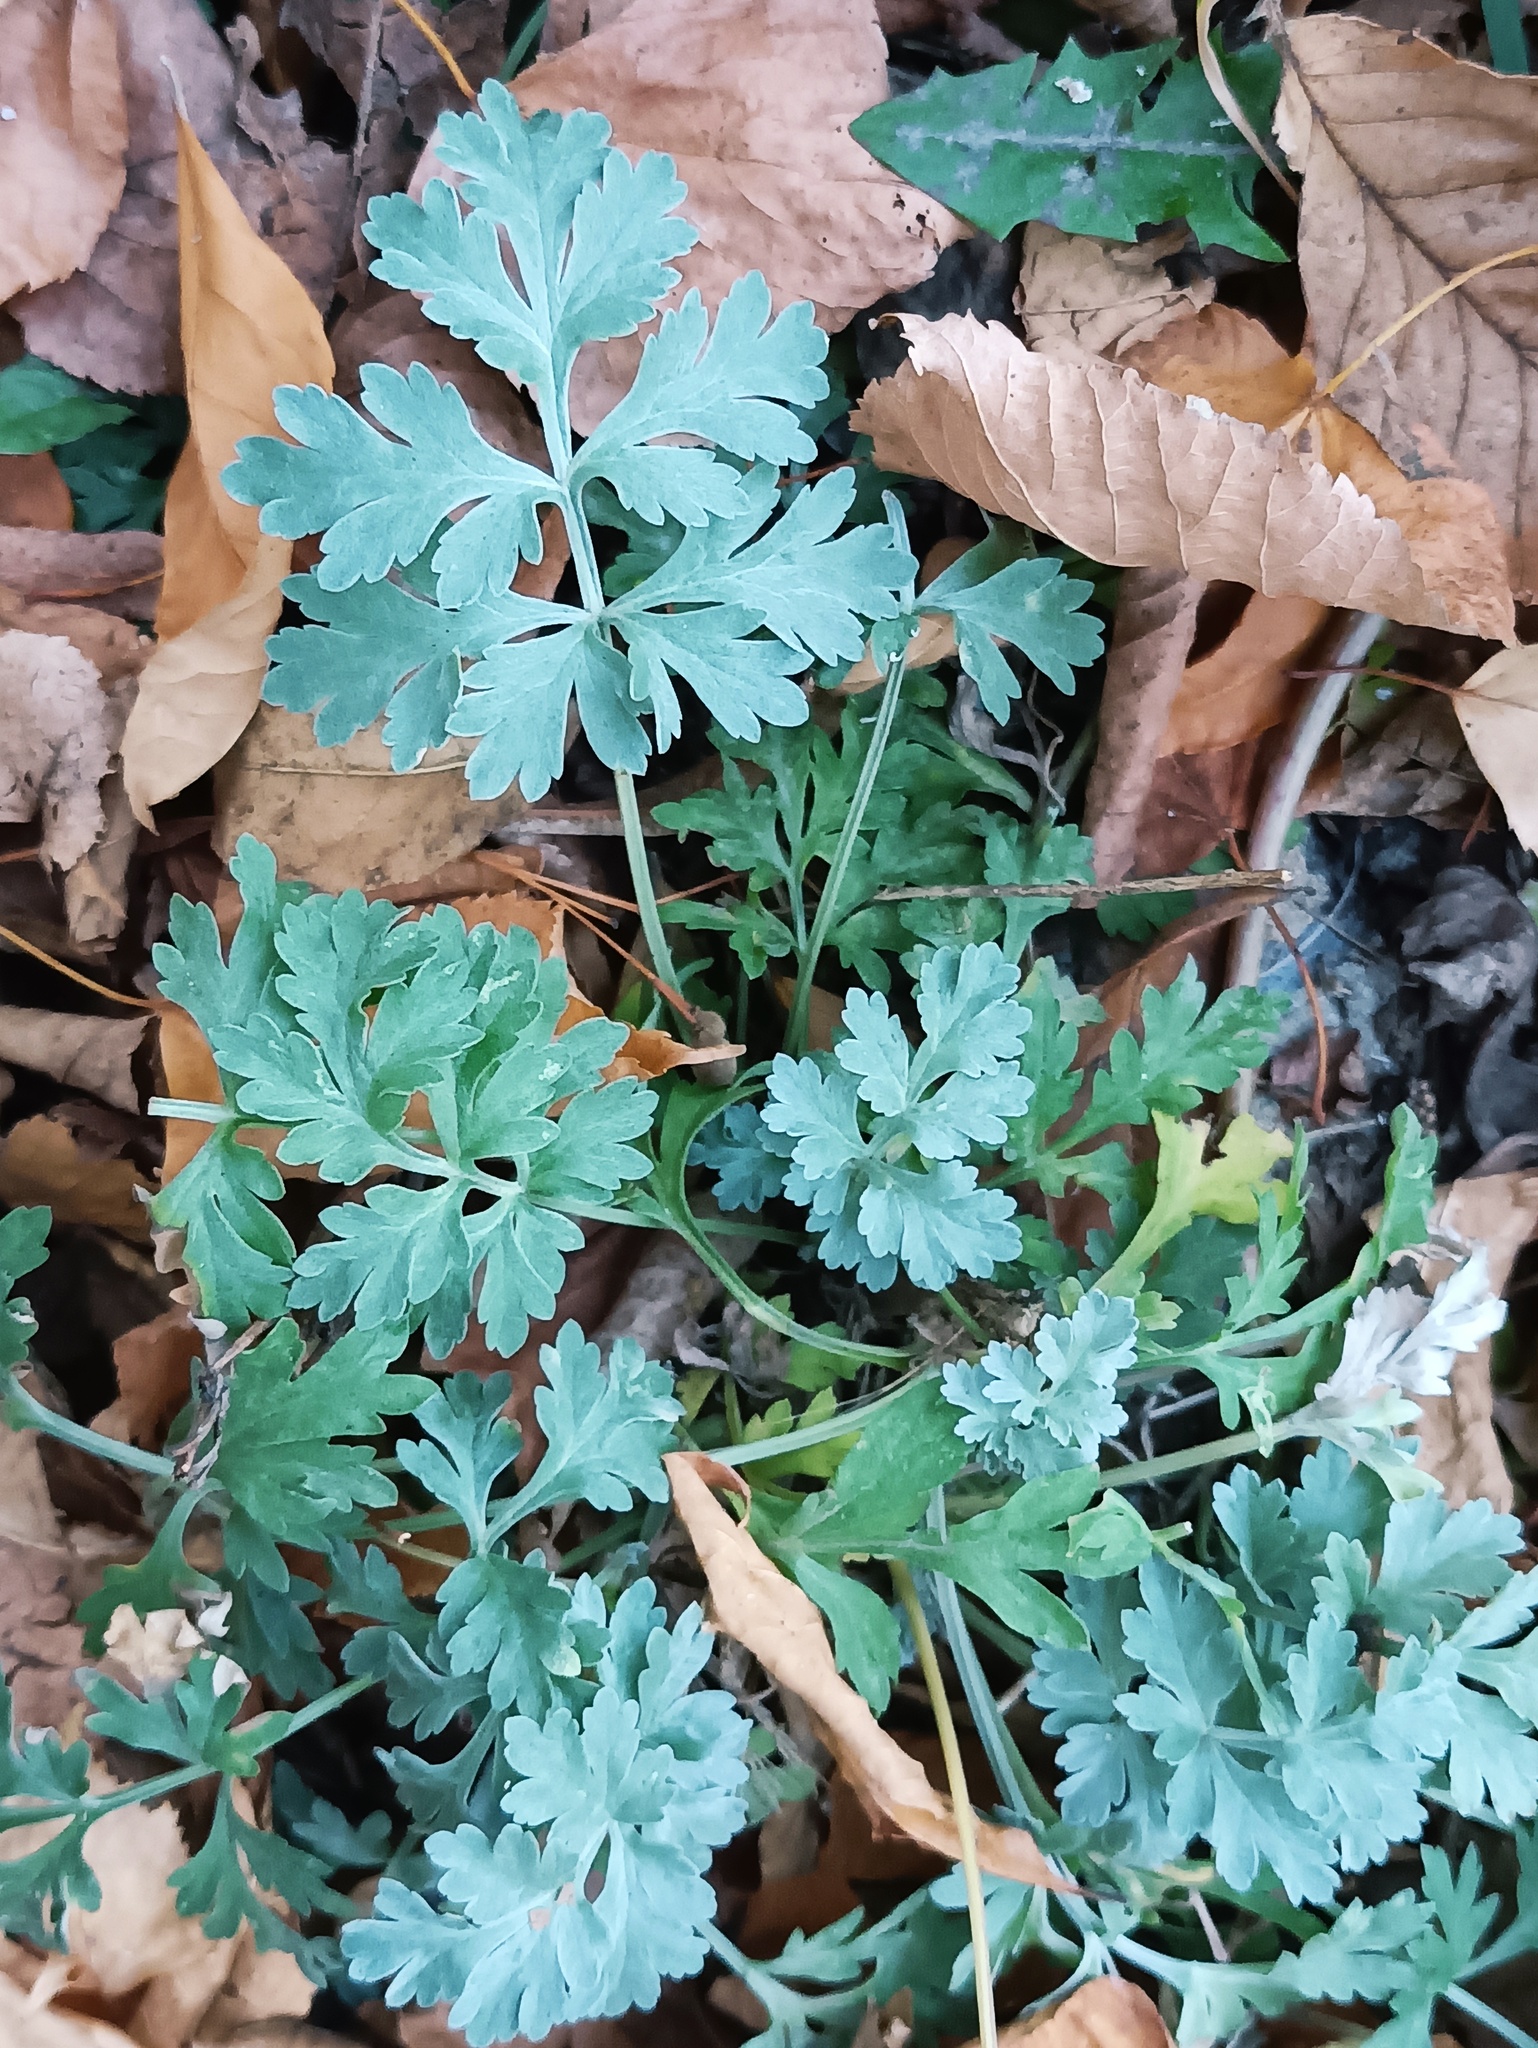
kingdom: Plantae
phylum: Tracheophyta
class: Magnoliopsida
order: Asterales
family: Asteraceae
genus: Artemisia
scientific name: Artemisia absinthium
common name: Wormwood
